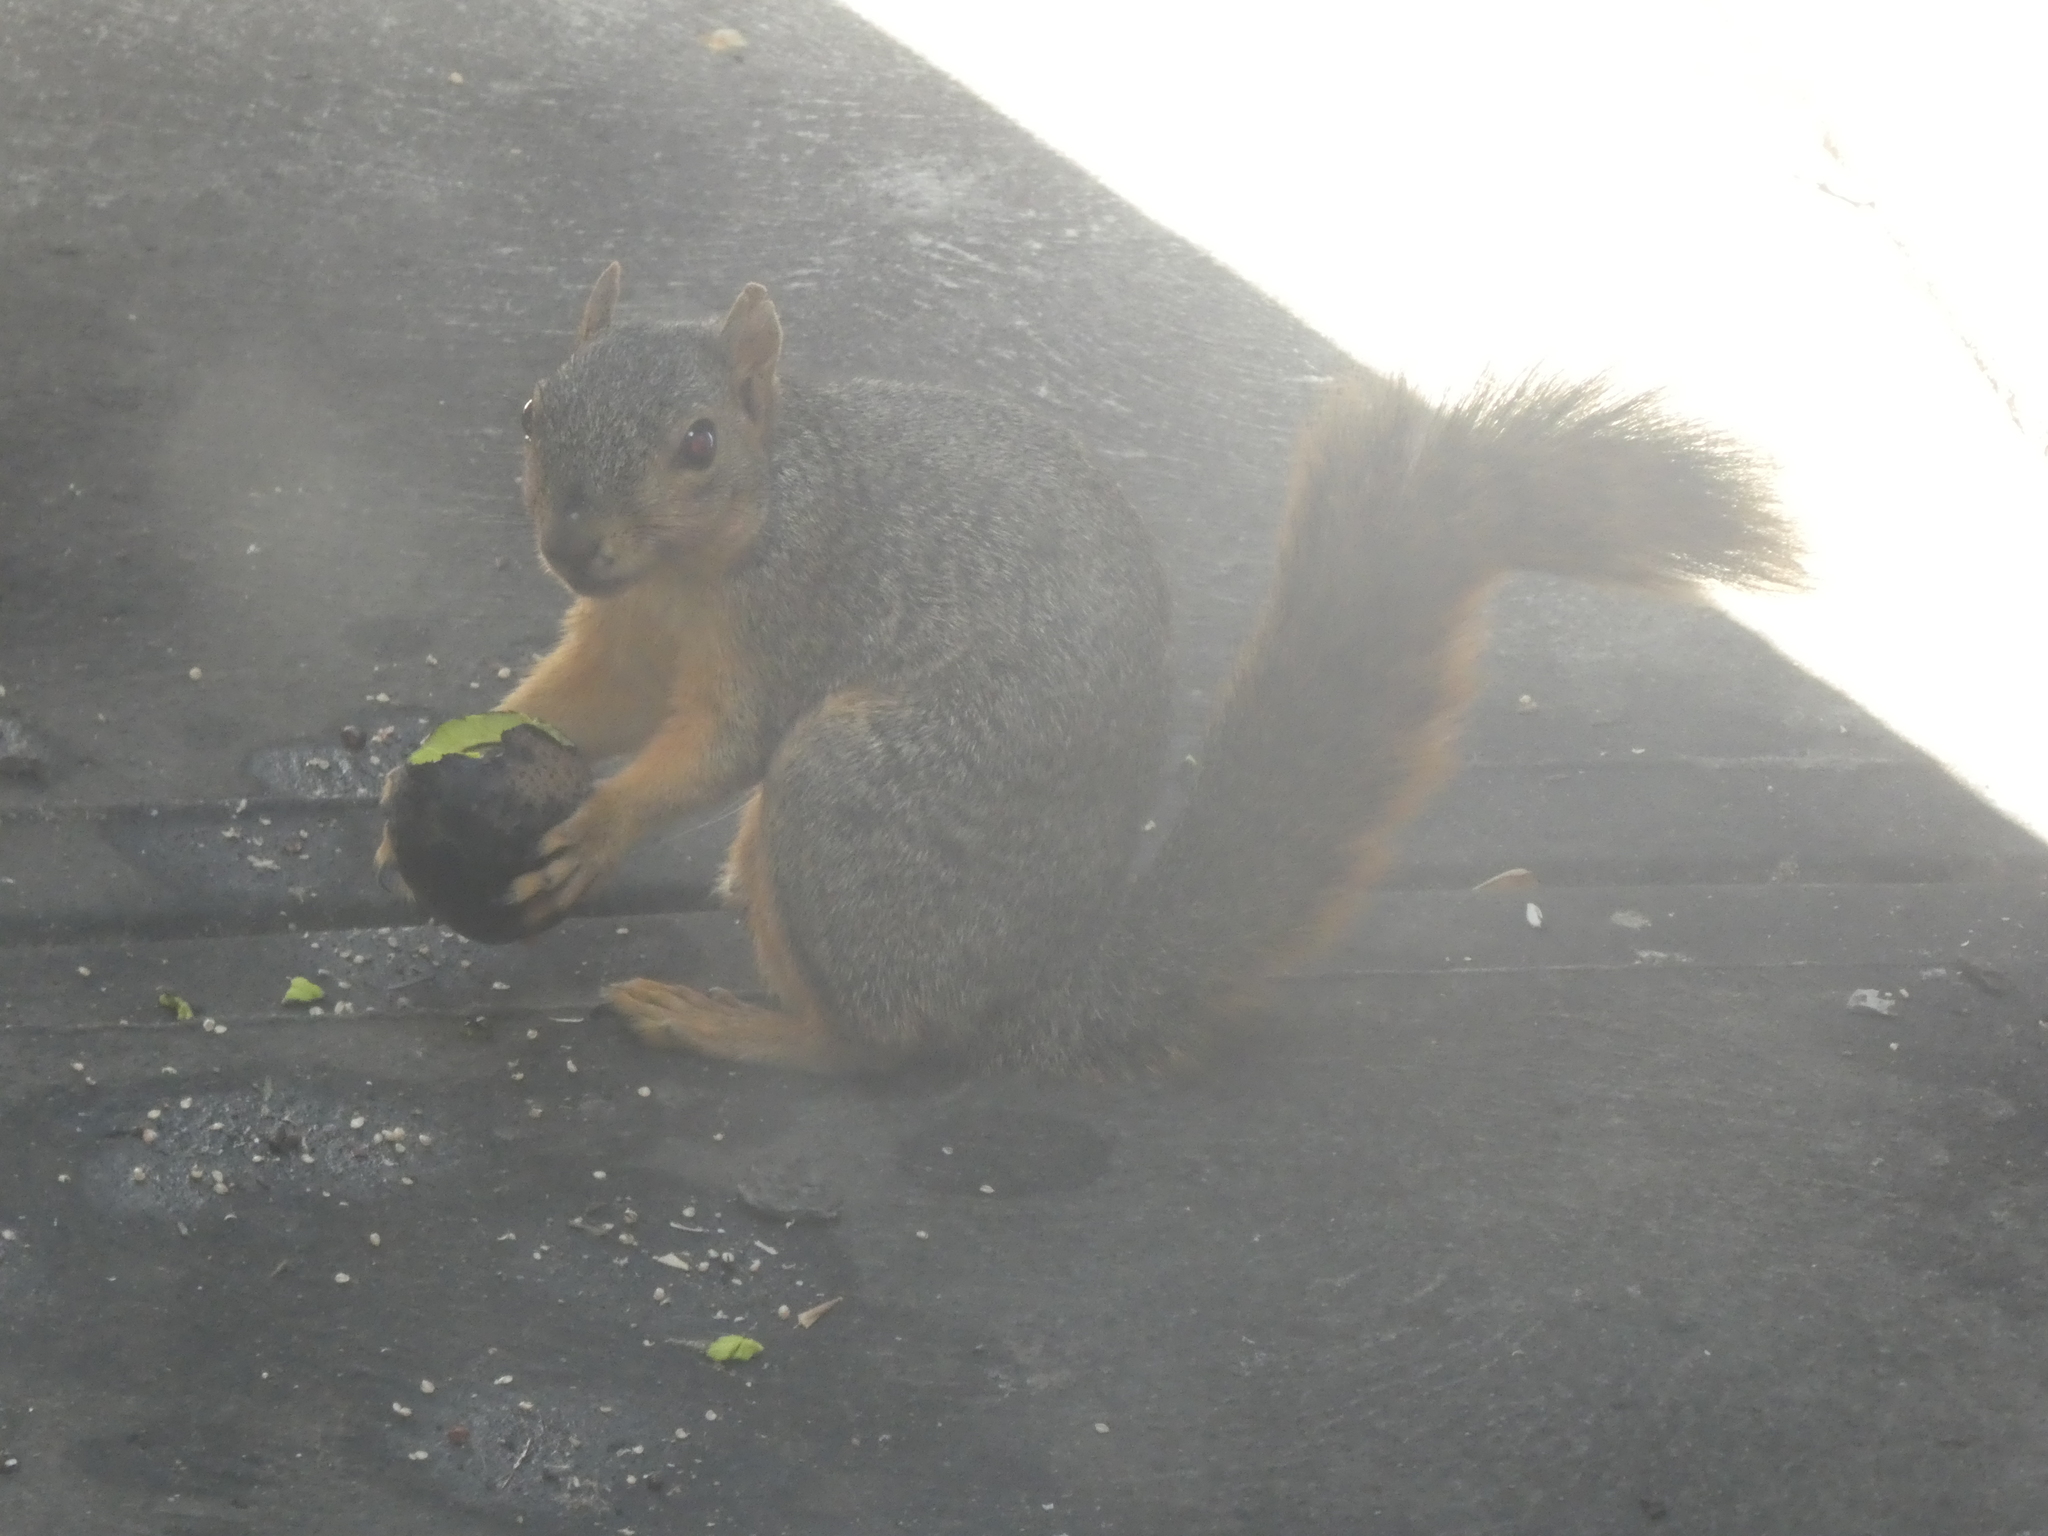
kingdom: Animalia
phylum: Chordata
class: Mammalia
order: Rodentia
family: Sciuridae
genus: Sciurus
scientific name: Sciurus niger
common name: Fox squirrel
